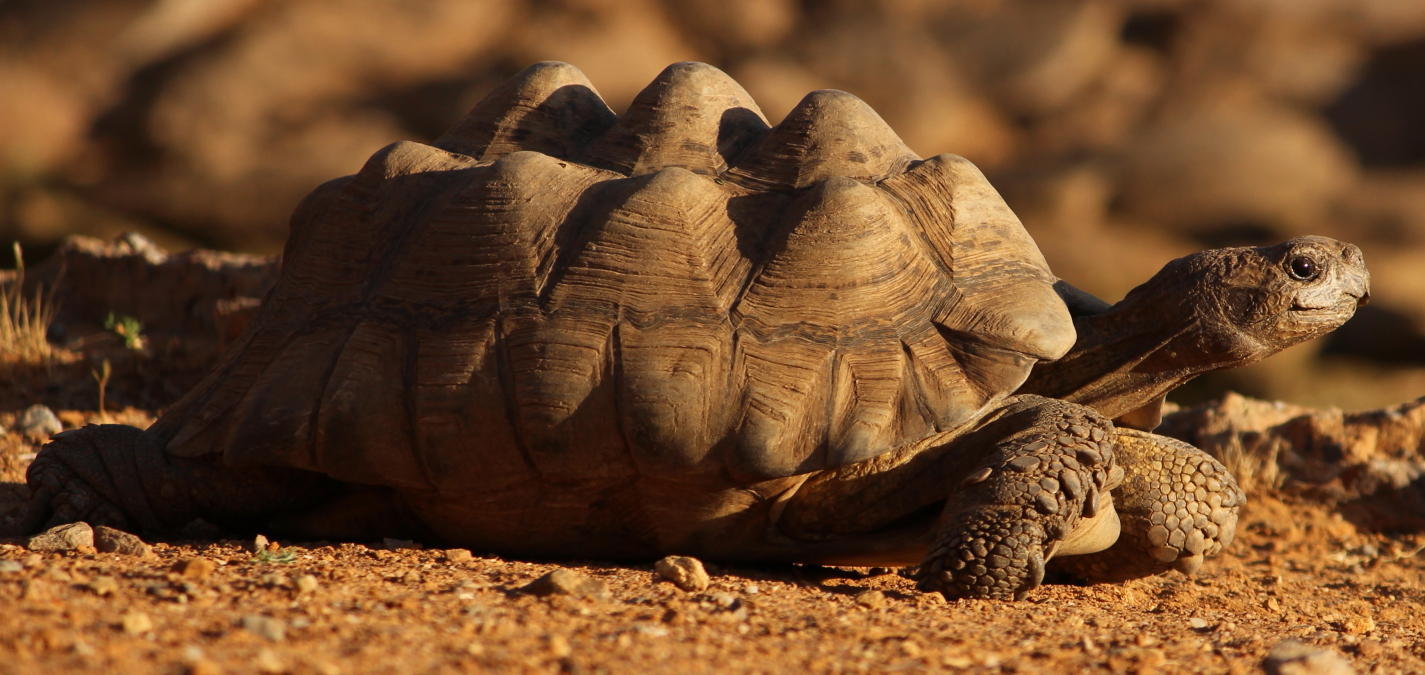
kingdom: Animalia
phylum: Chordata
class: Testudines
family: Testudinidae
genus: Stigmochelys
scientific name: Stigmochelys pardalis
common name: Leopard tortoise
